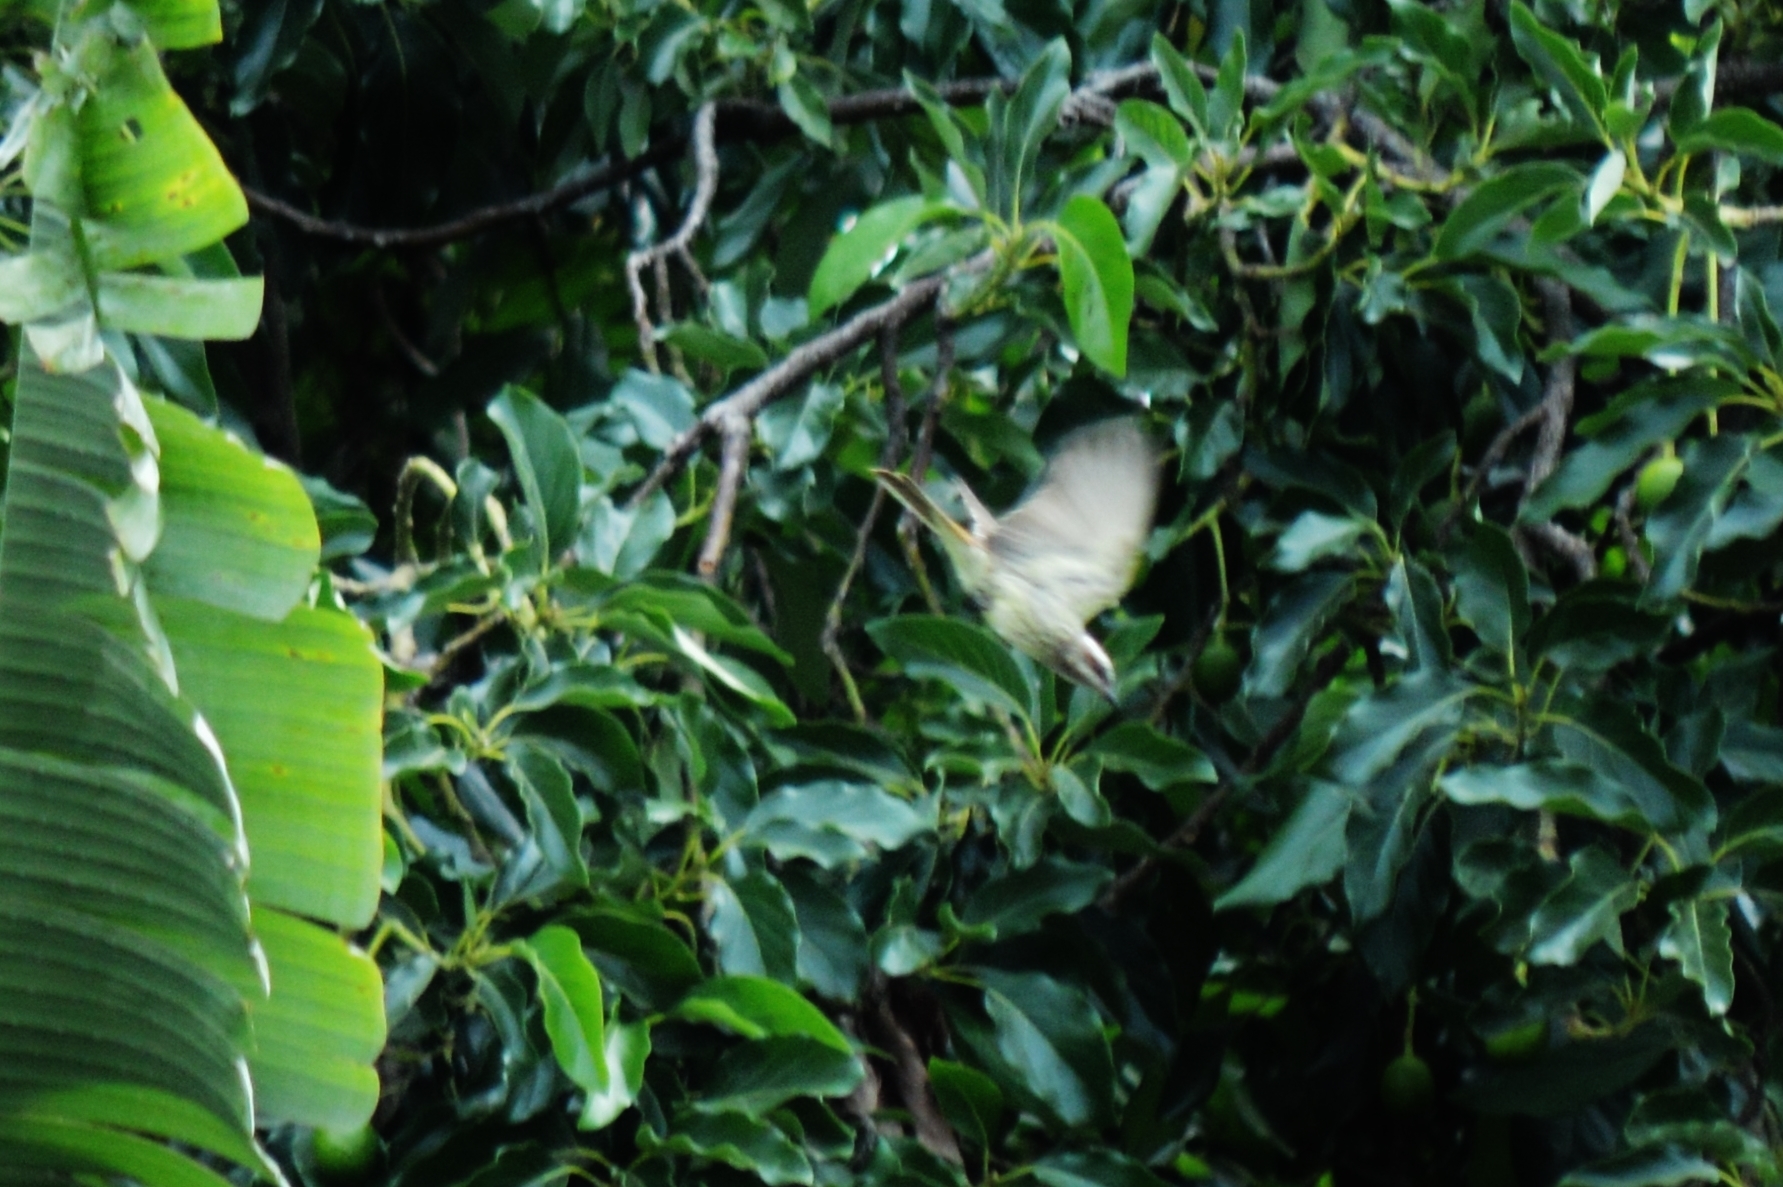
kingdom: Animalia
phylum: Chordata
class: Aves
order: Passeriformes
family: Tyrannidae
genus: Myiodynastes
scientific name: Myiodynastes maculatus
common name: Streaked flycatcher
